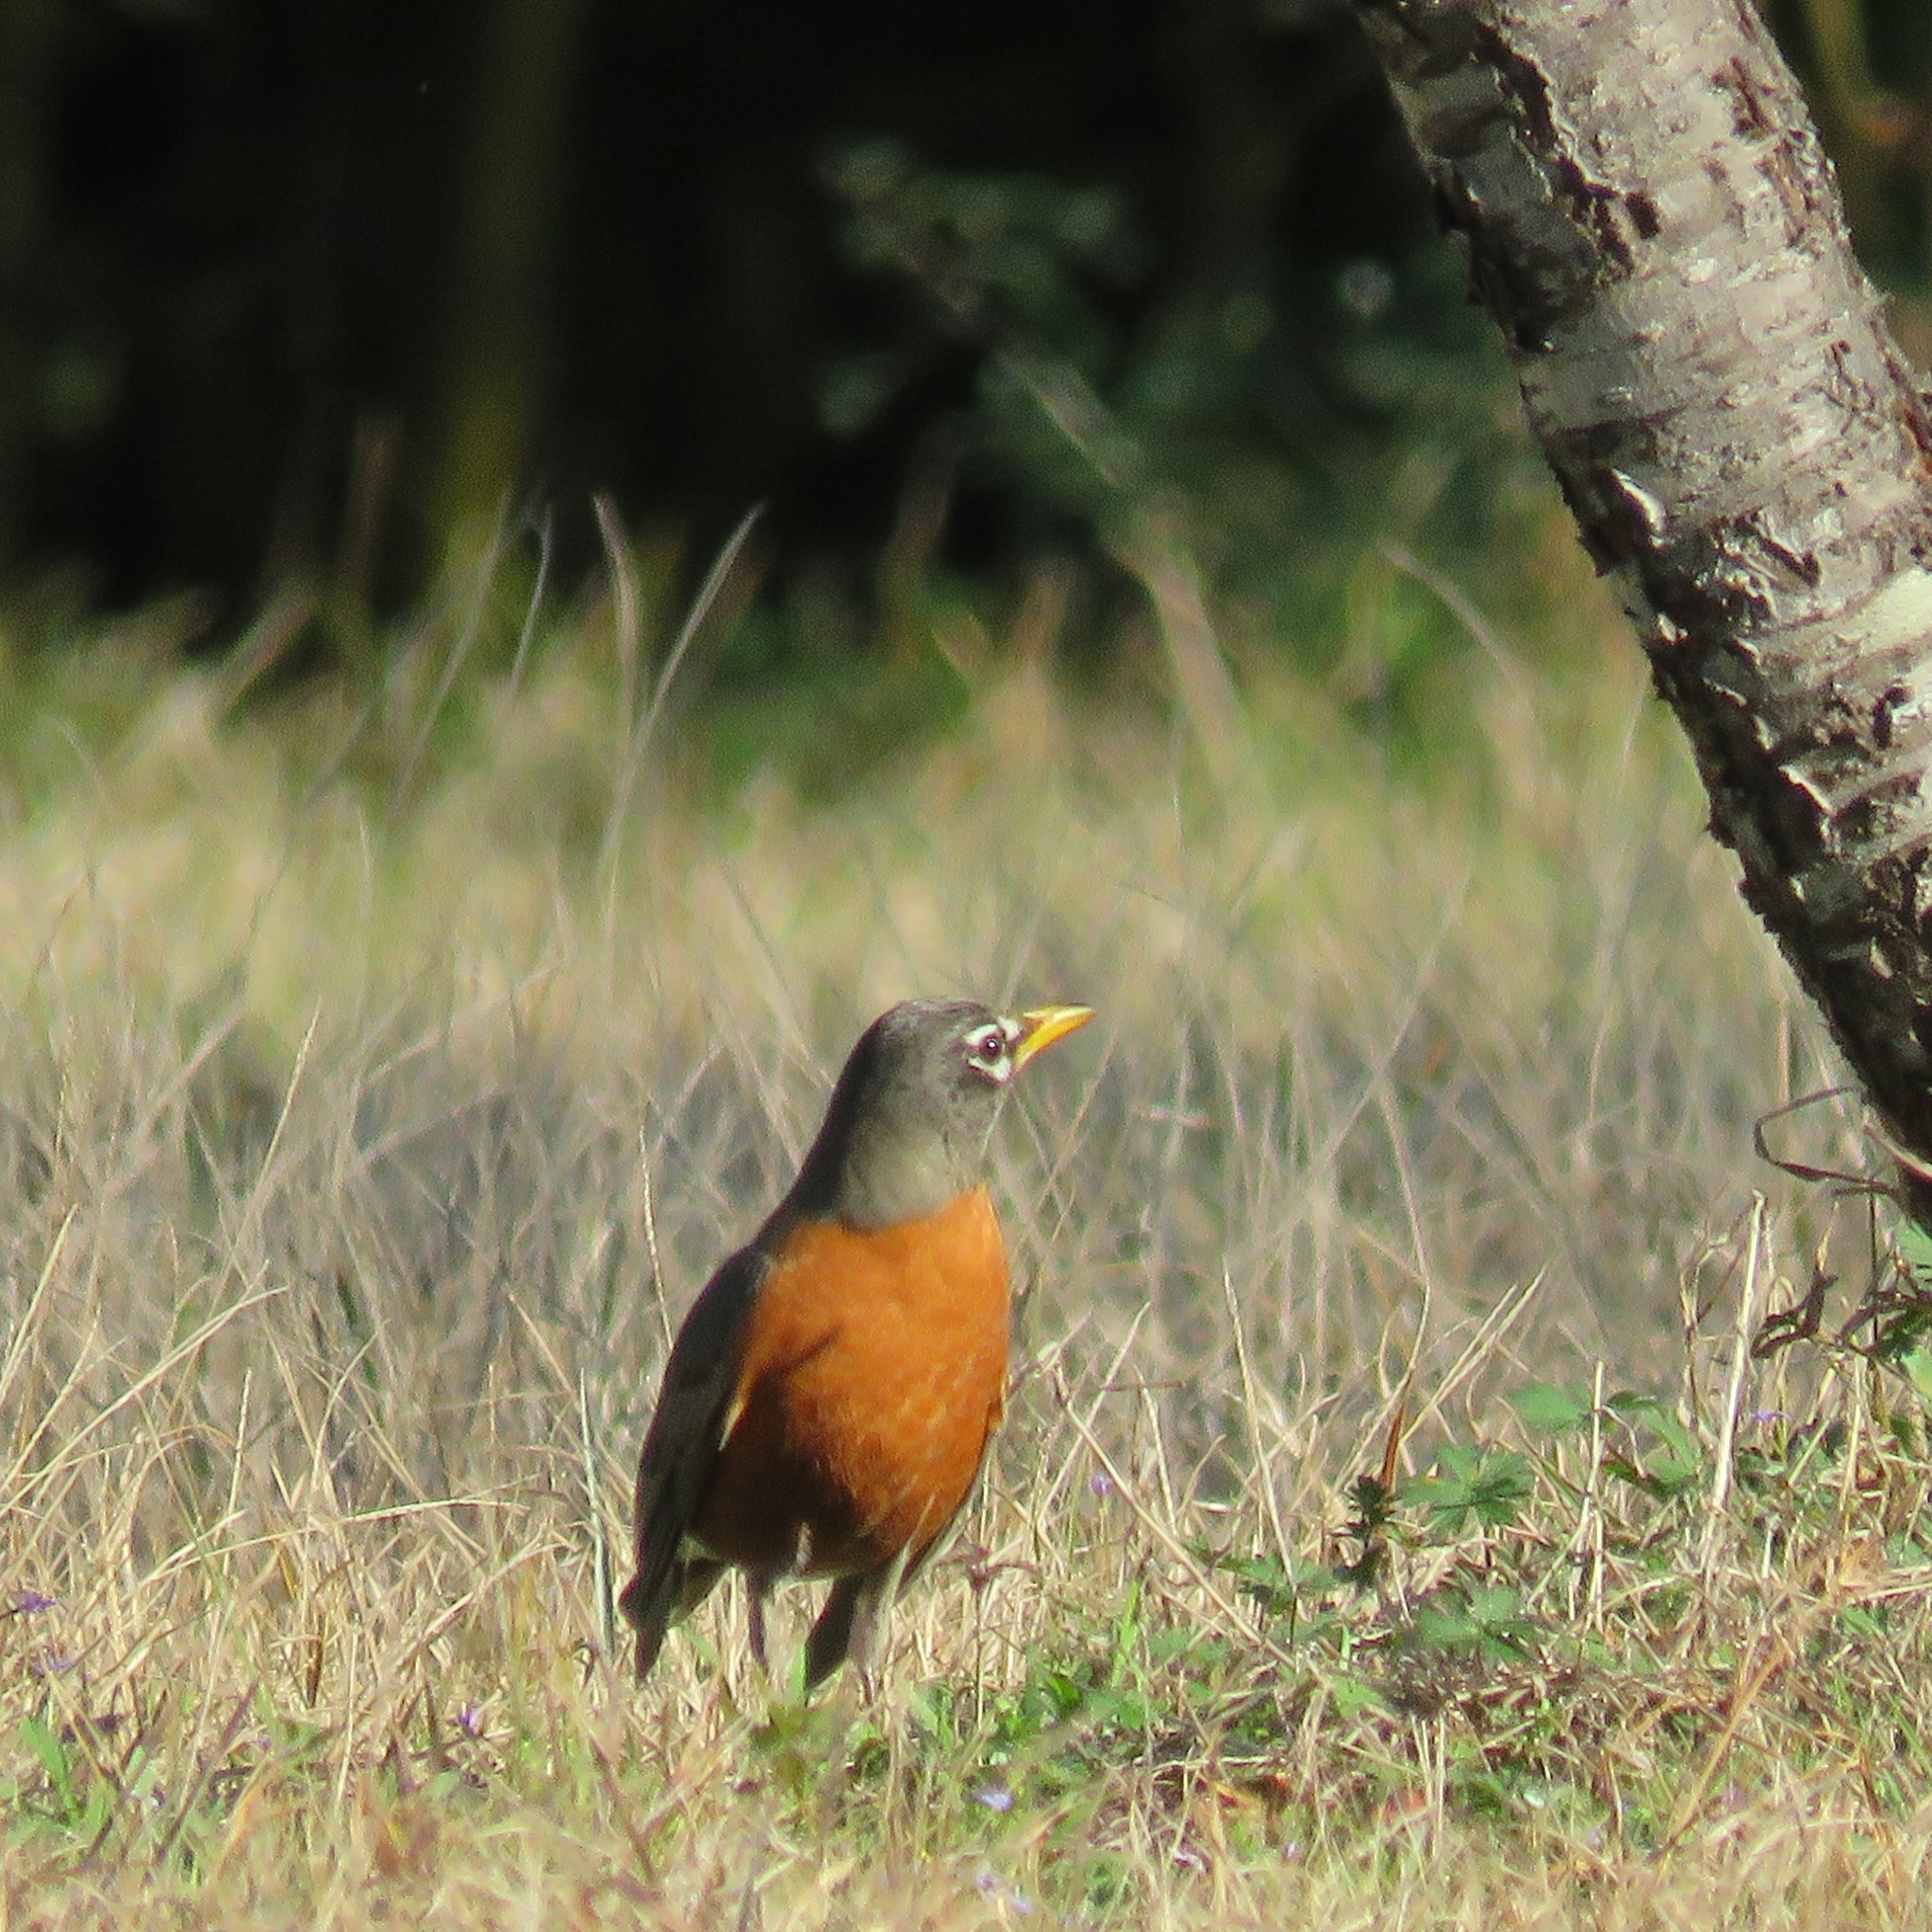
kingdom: Animalia
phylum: Chordata
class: Aves
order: Passeriformes
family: Turdidae
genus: Turdus
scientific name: Turdus migratorius
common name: American robin
